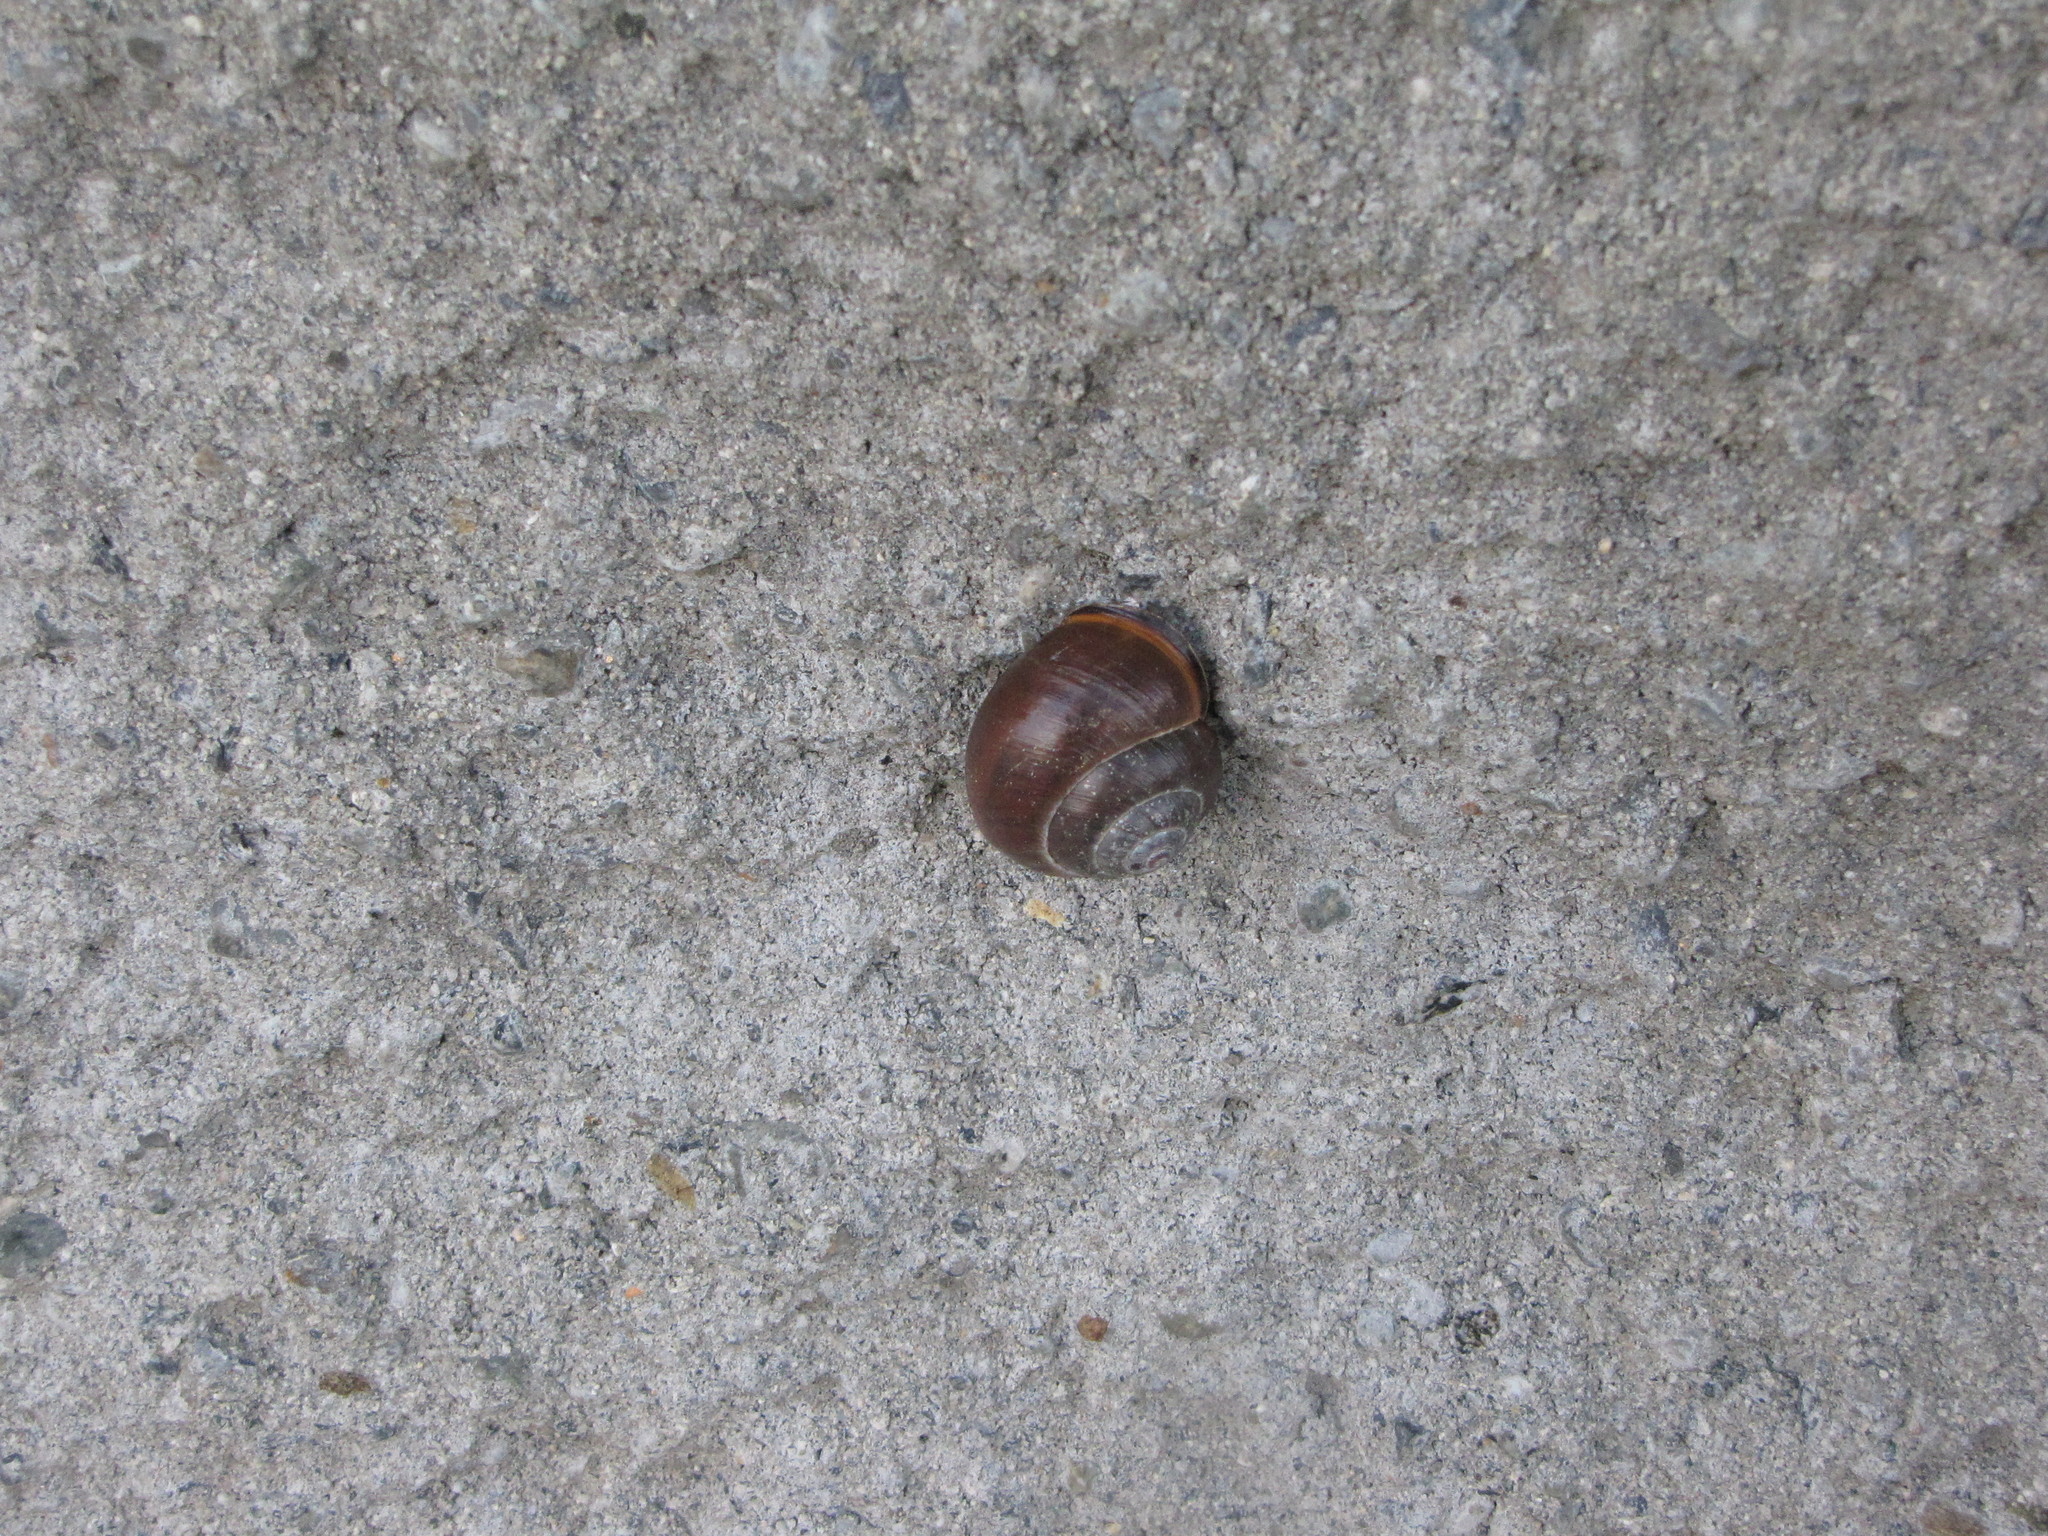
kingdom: Animalia
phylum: Mollusca
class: Gastropoda
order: Stylommatophora
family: Helicidae
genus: Cepaea
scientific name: Cepaea nemoralis
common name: Grovesnail
